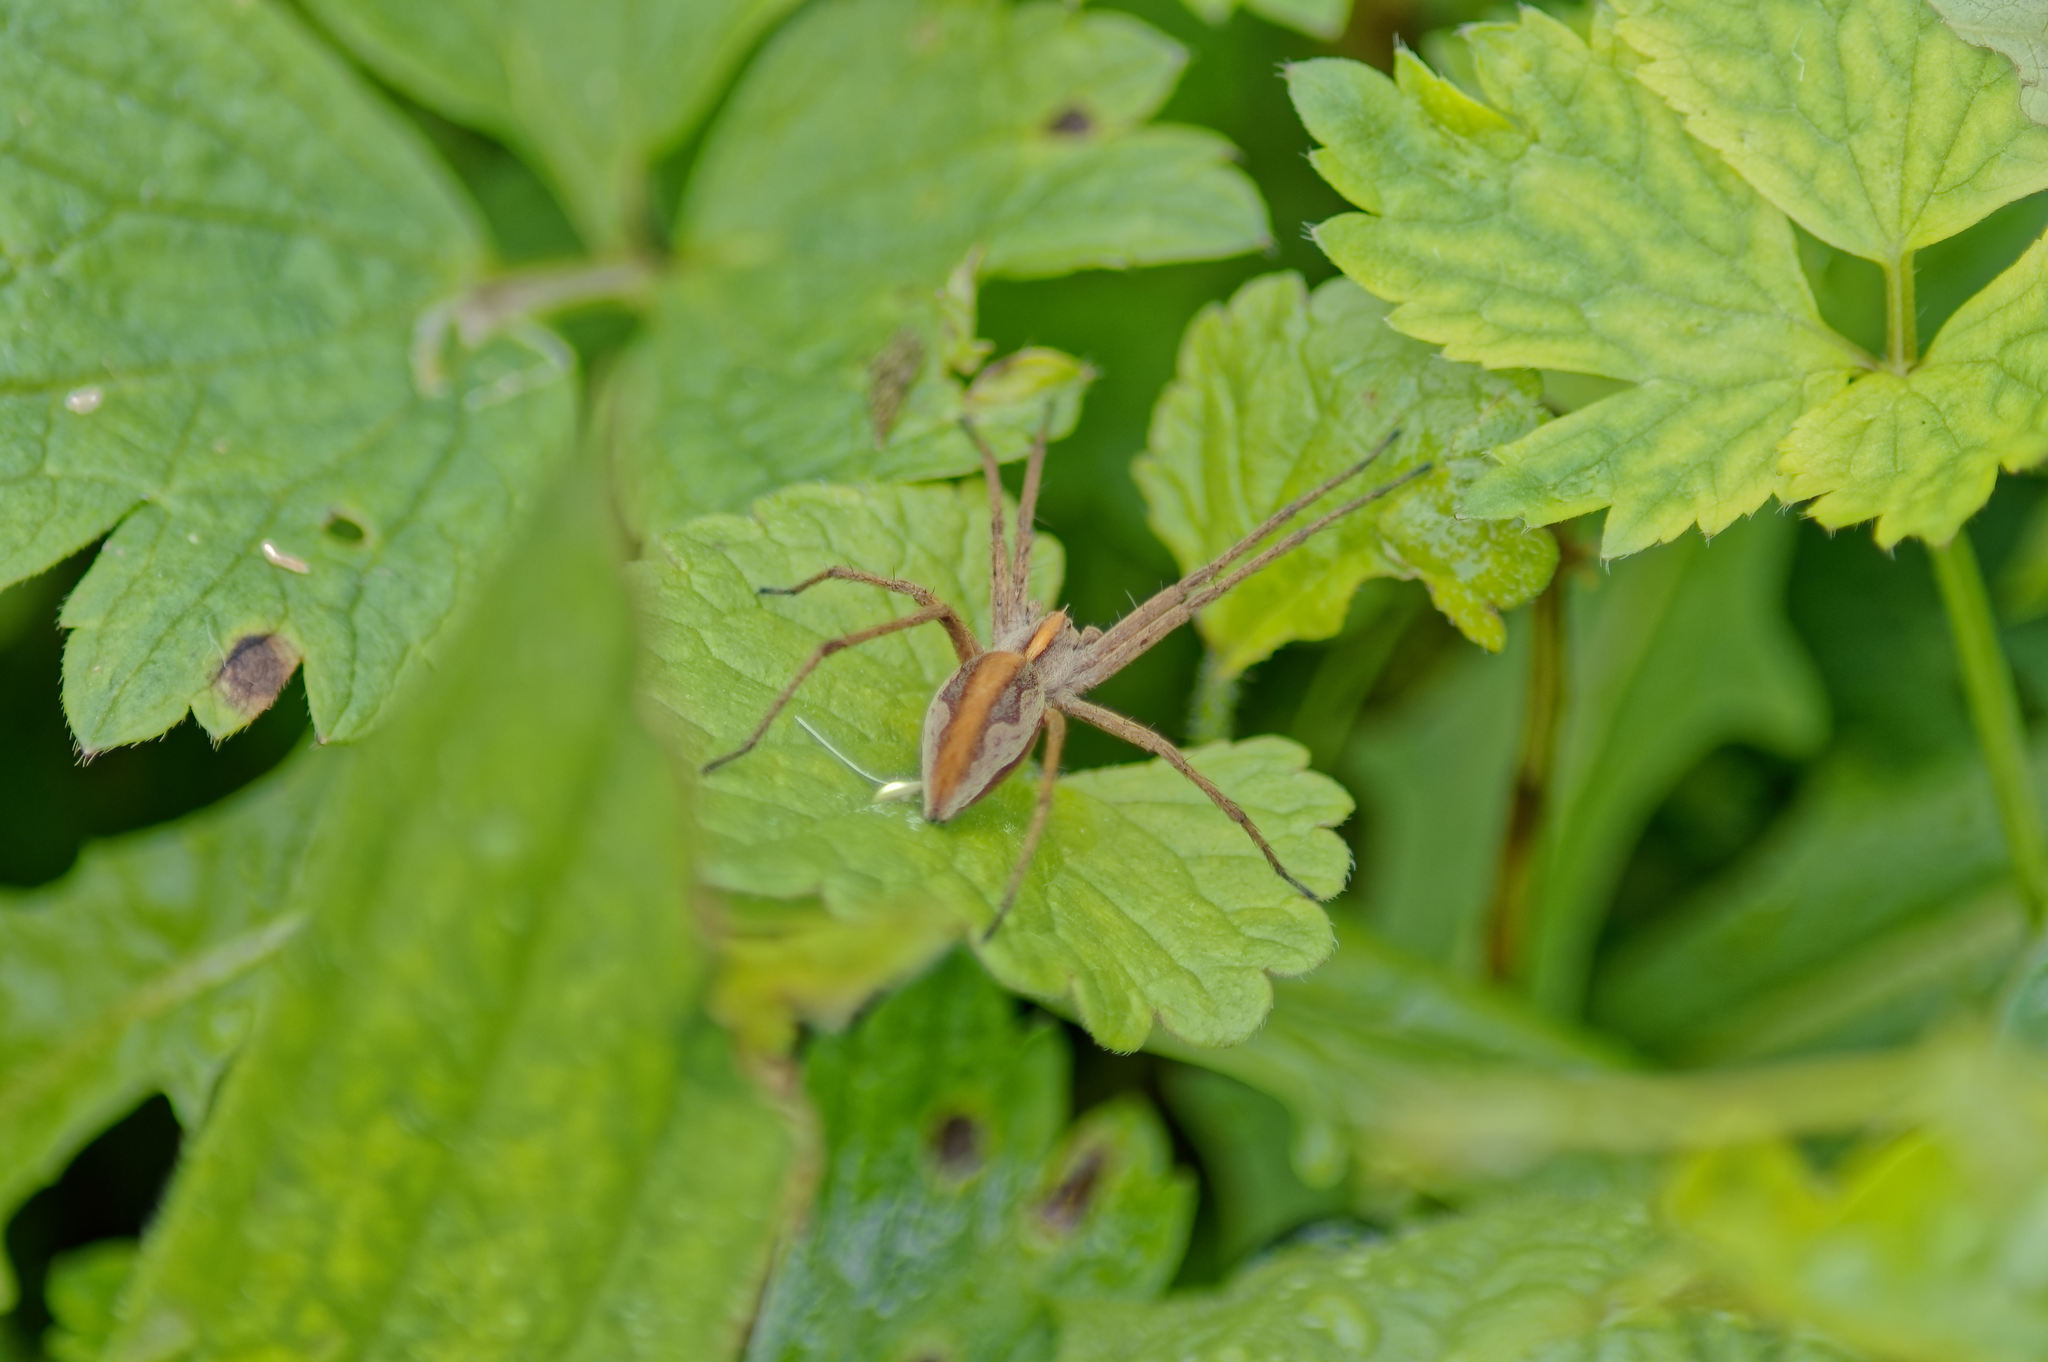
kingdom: Animalia
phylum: Arthropoda
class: Arachnida
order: Araneae
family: Pisauridae
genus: Pisaura
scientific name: Pisaura mirabilis
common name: Tent spider
